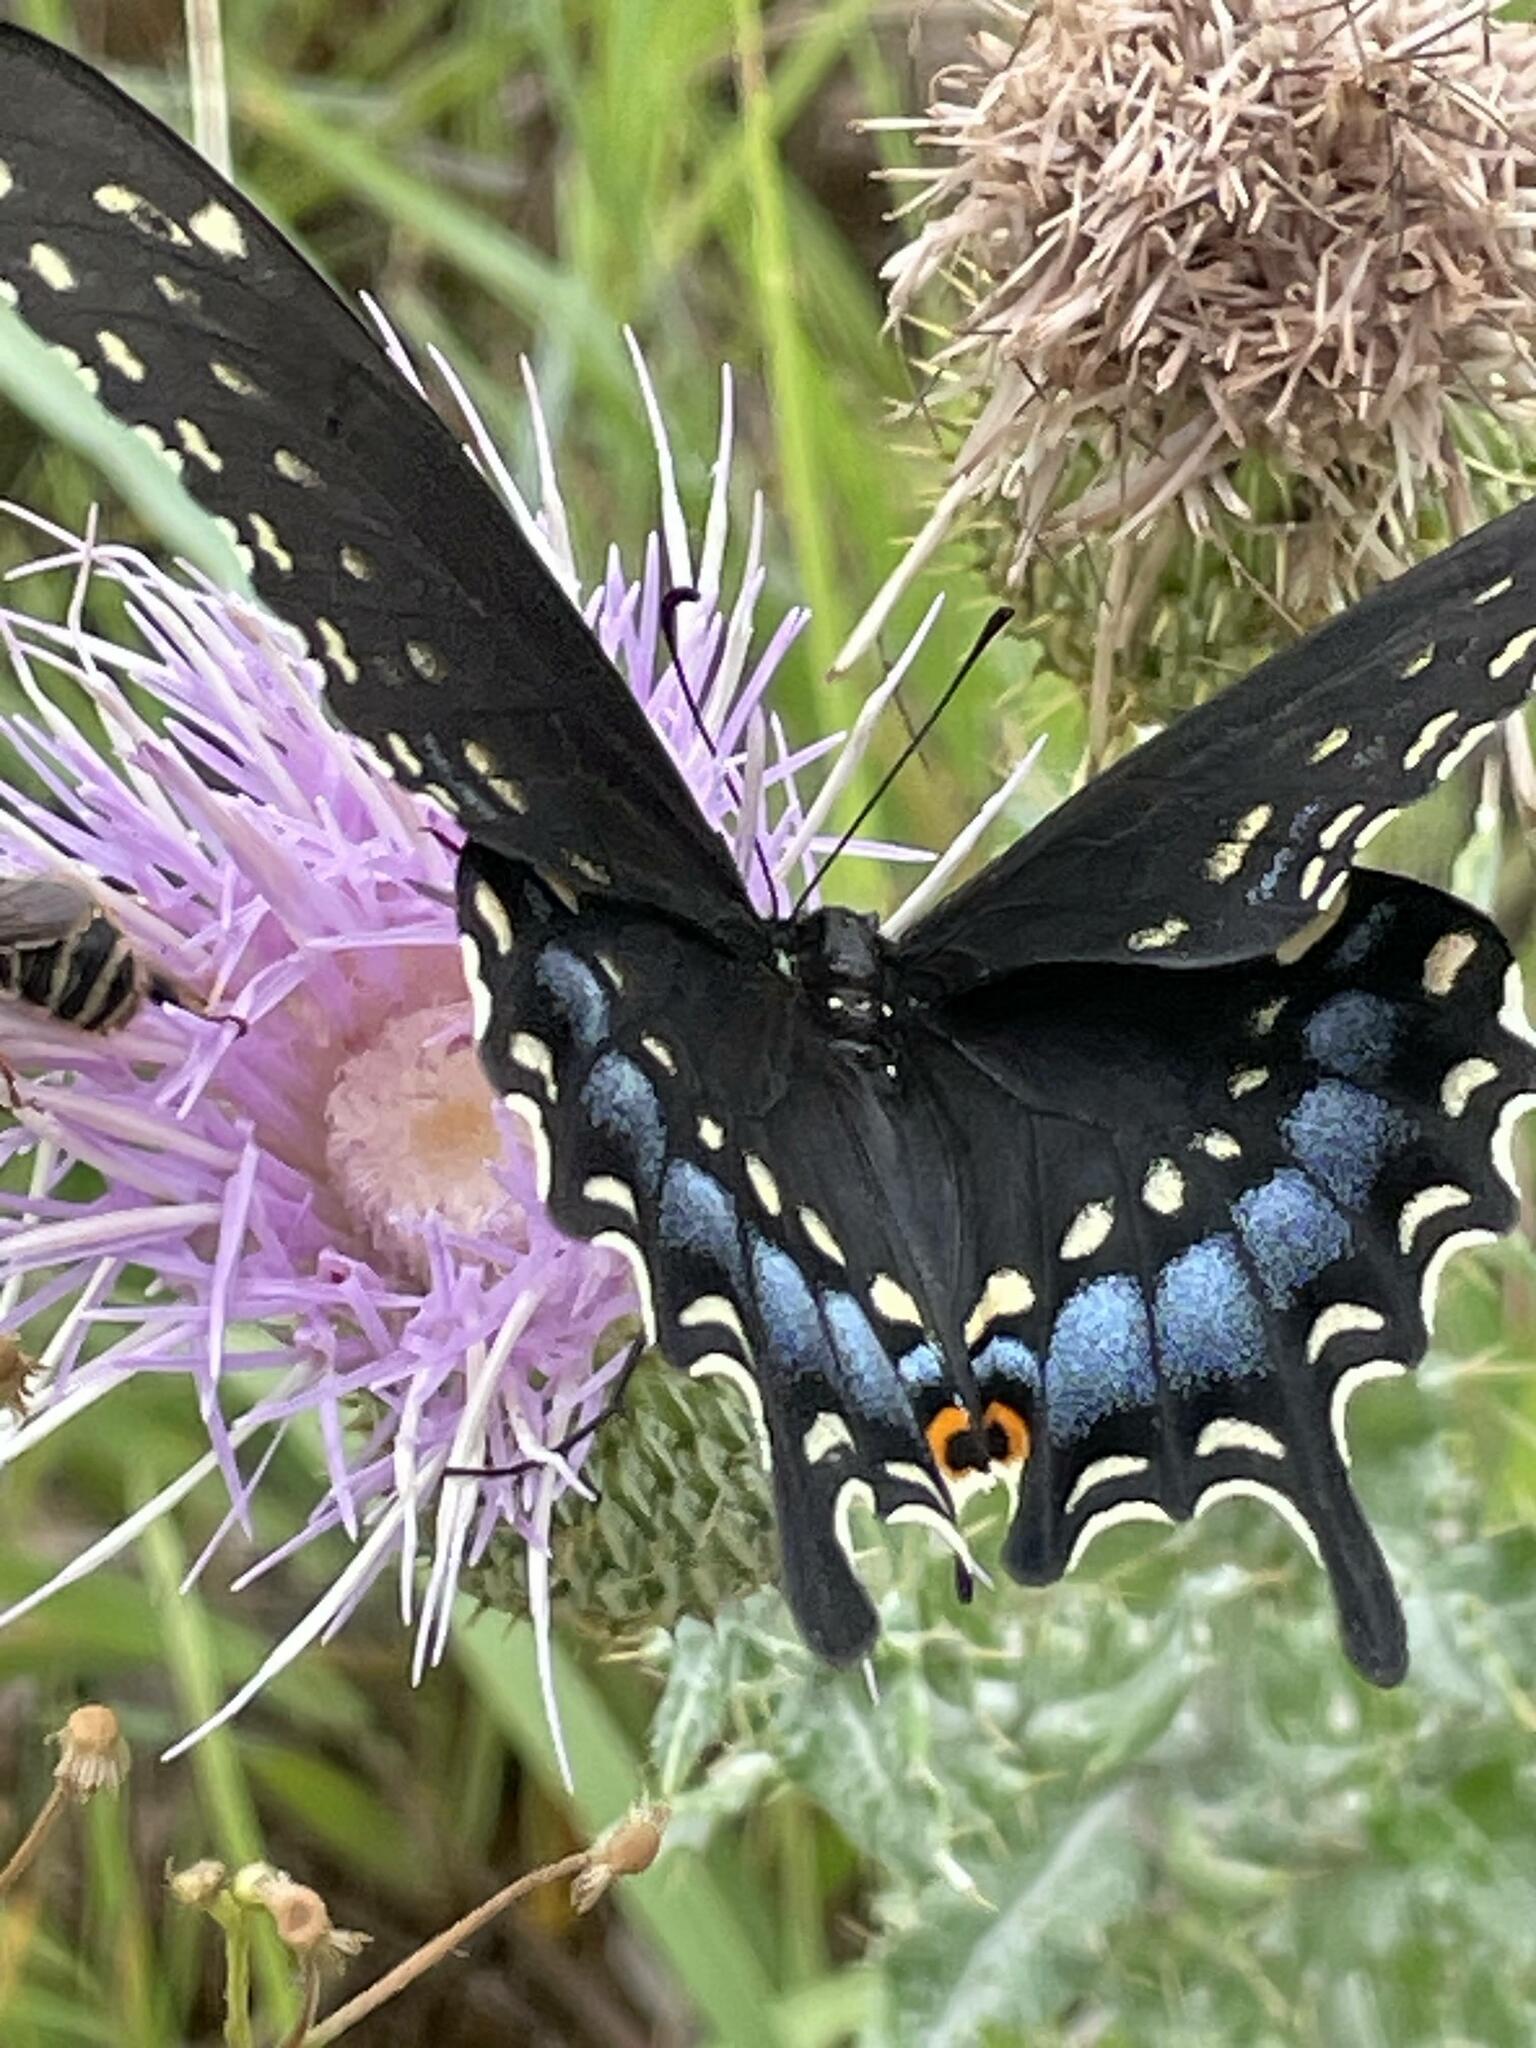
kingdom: Animalia
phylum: Arthropoda
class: Insecta
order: Lepidoptera
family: Papilionidae
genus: Papilio
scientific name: Papilio polyxenes
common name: Black swallowtail
